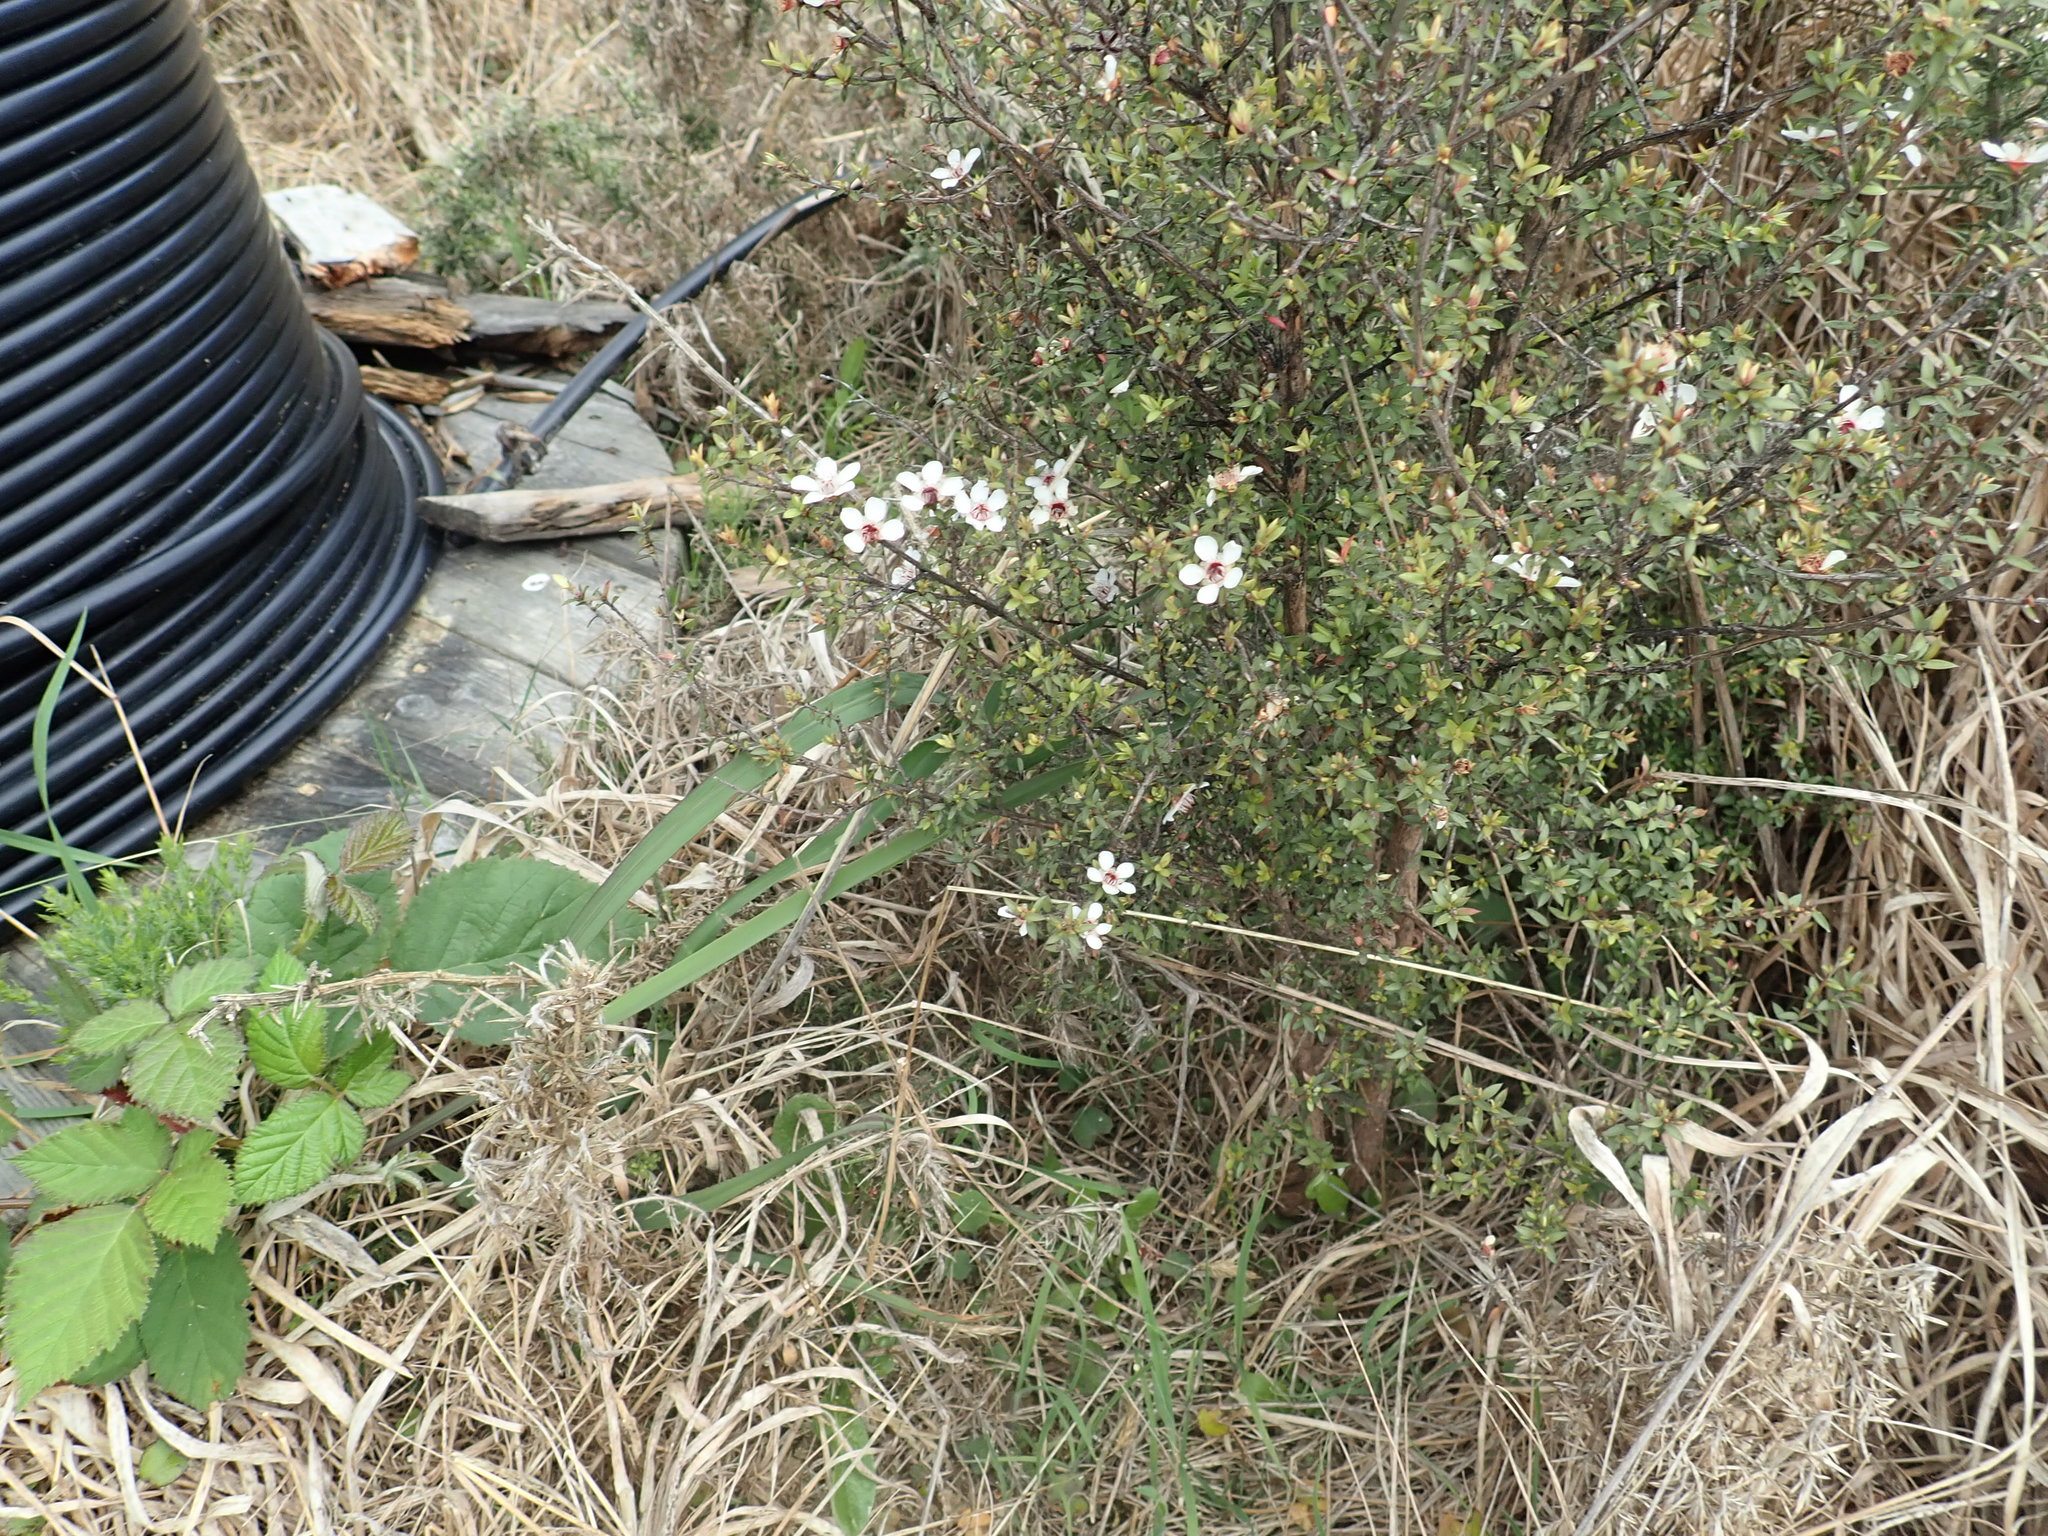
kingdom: Plantae
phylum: Tracheophyta
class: Magnoliopsida
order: Myrtales
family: Myrtaceae
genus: Leptospermum
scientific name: Leptospermum scoparium
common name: Broom tea-tree
